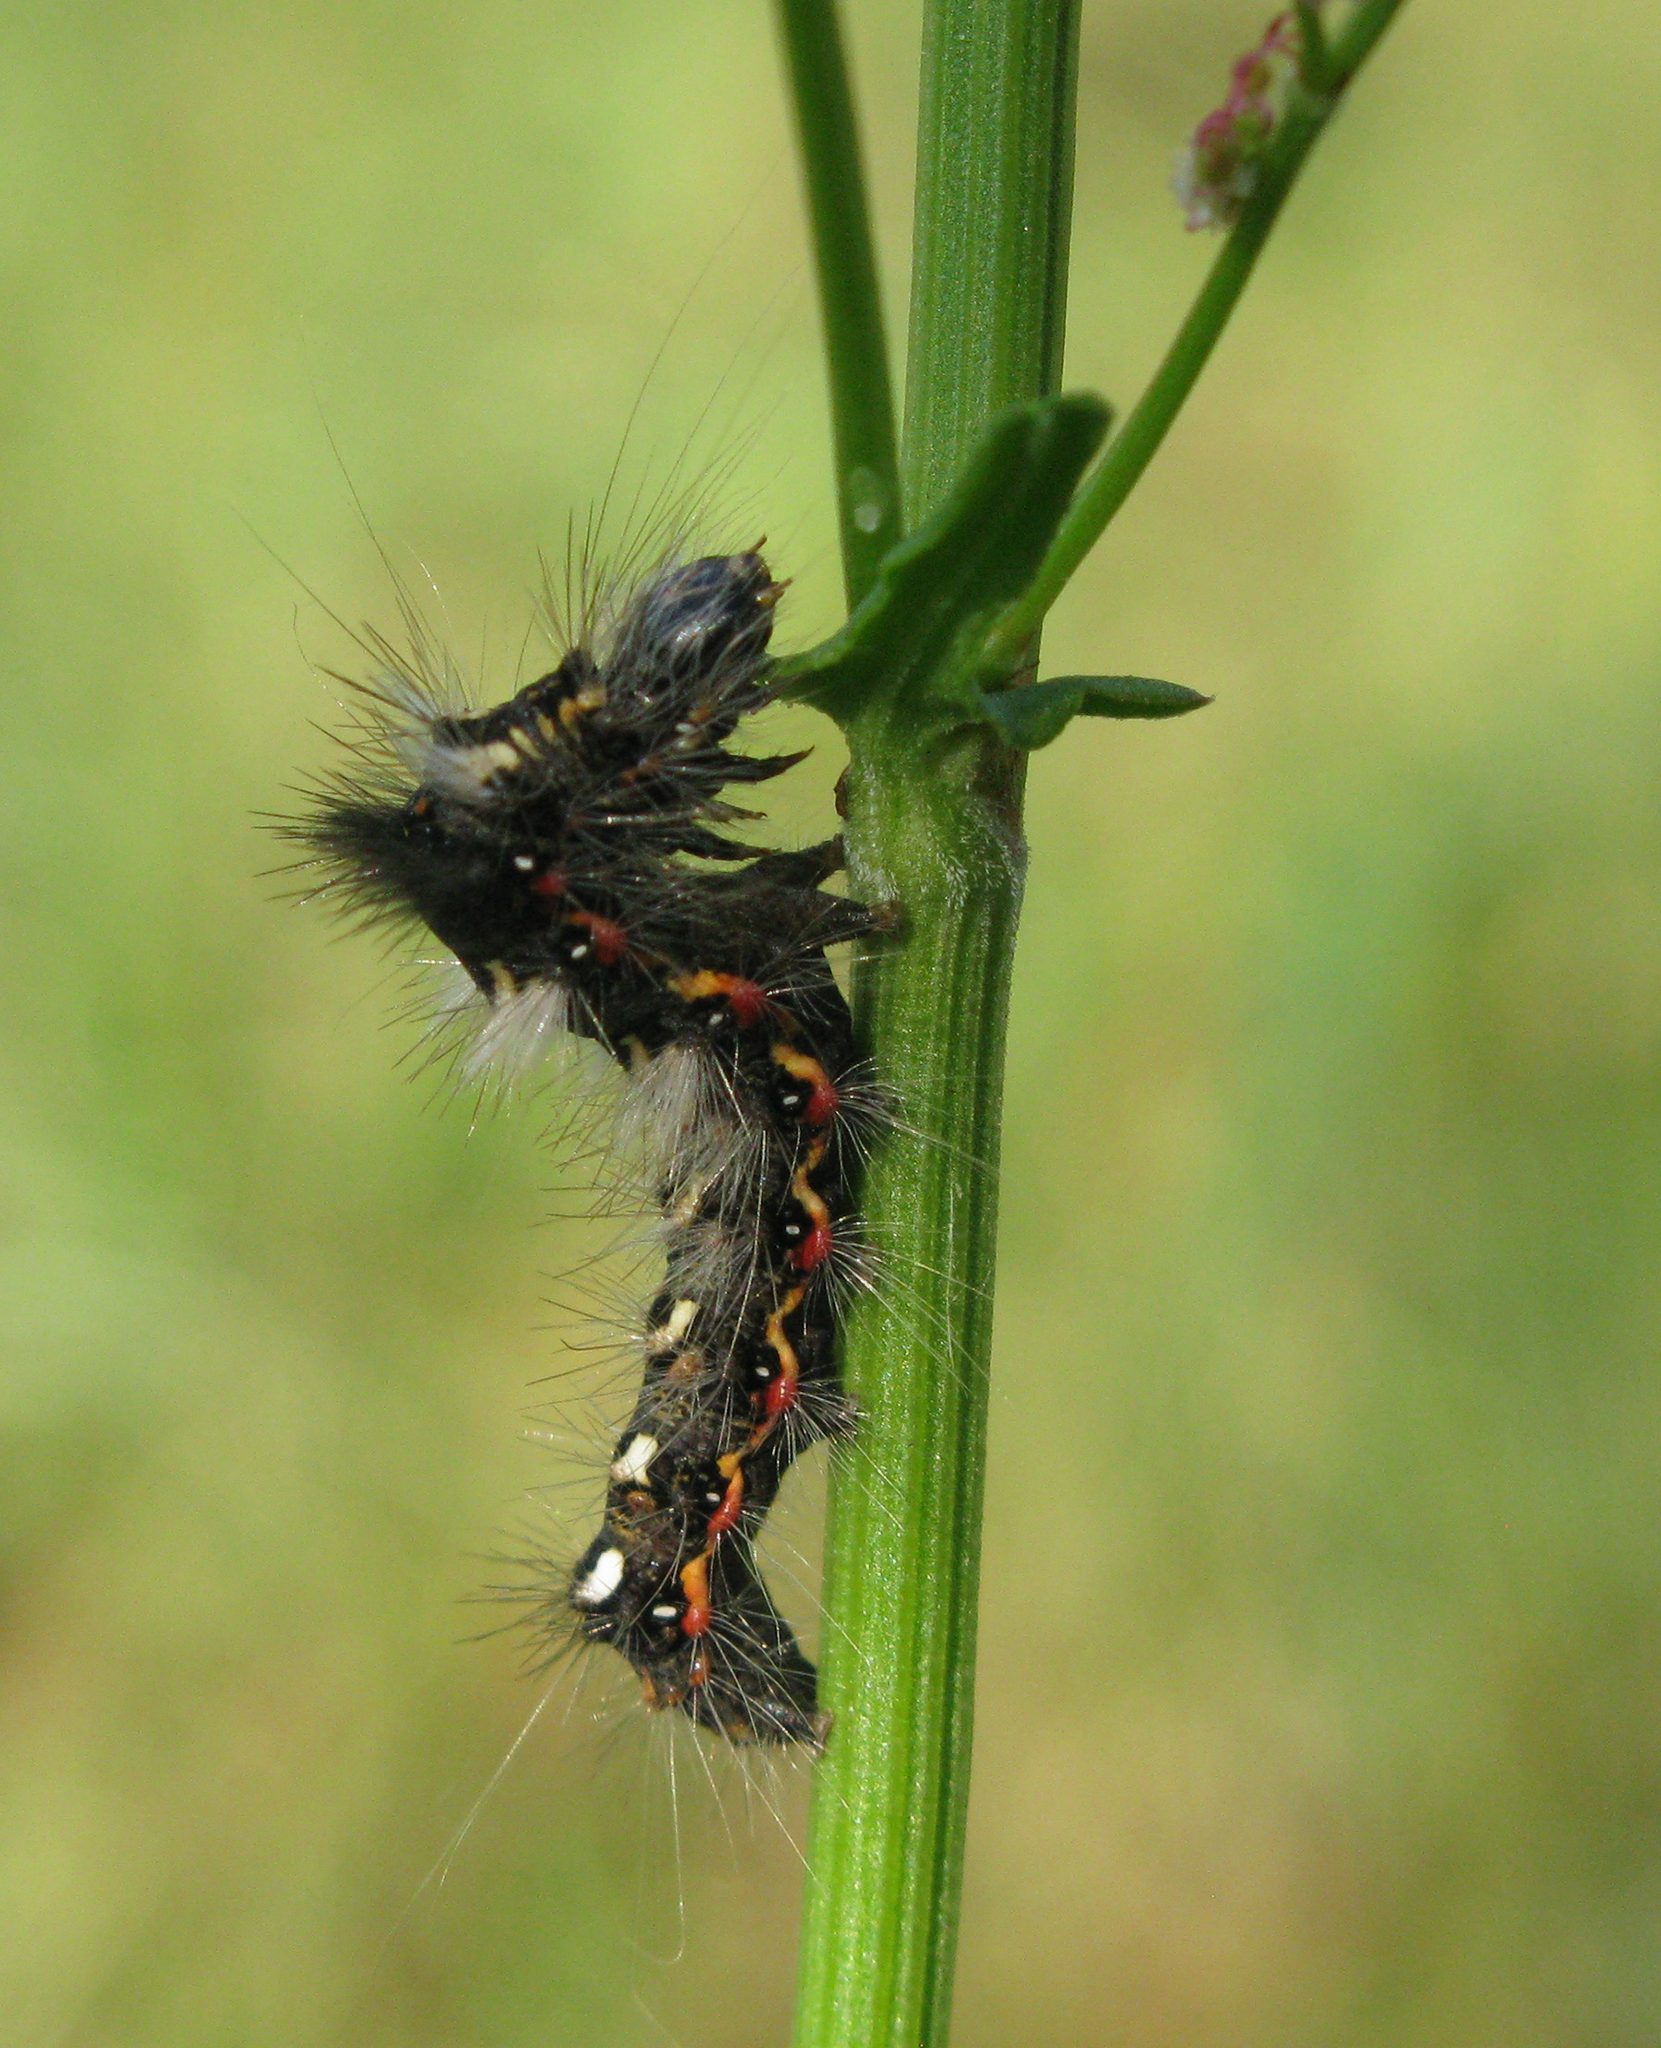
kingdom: Animalia
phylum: Arthropoda
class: Insecta
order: Lepidoptera
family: Noctuidae
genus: Acronicta
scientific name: Acronicta rumicis
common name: Knot grass
